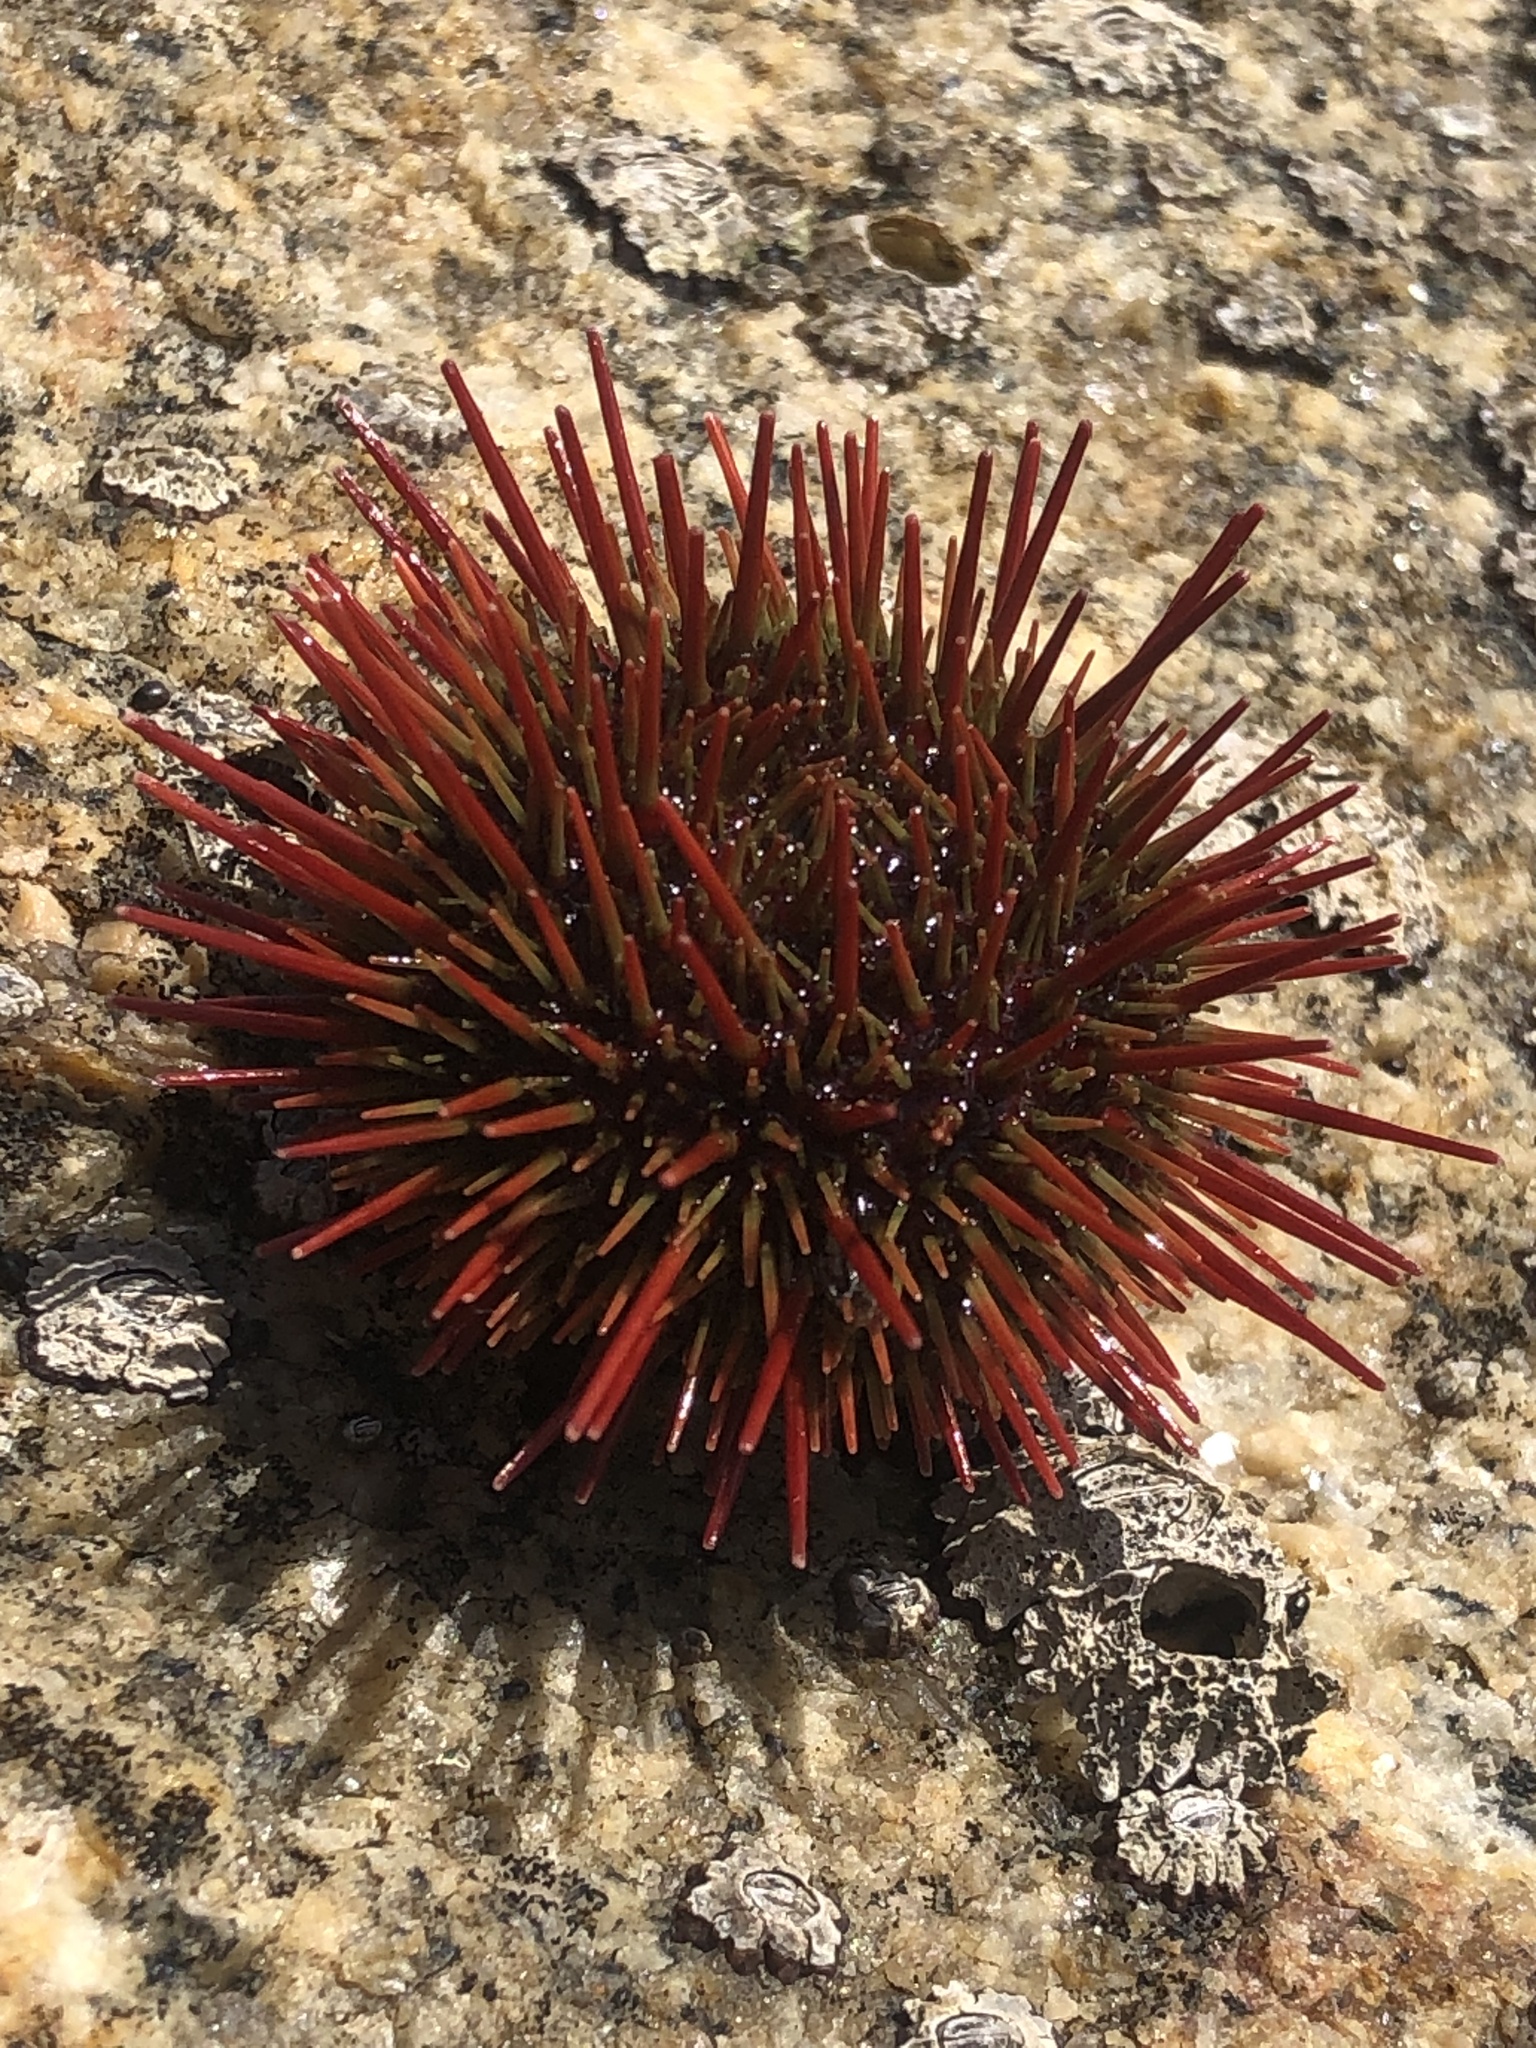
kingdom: Animalia
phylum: Echinodermata
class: Echinoidea
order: Camarodonta
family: Parechinidae
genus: Loxechinus
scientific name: Loxechinus albus
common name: Chilean sea urchin
